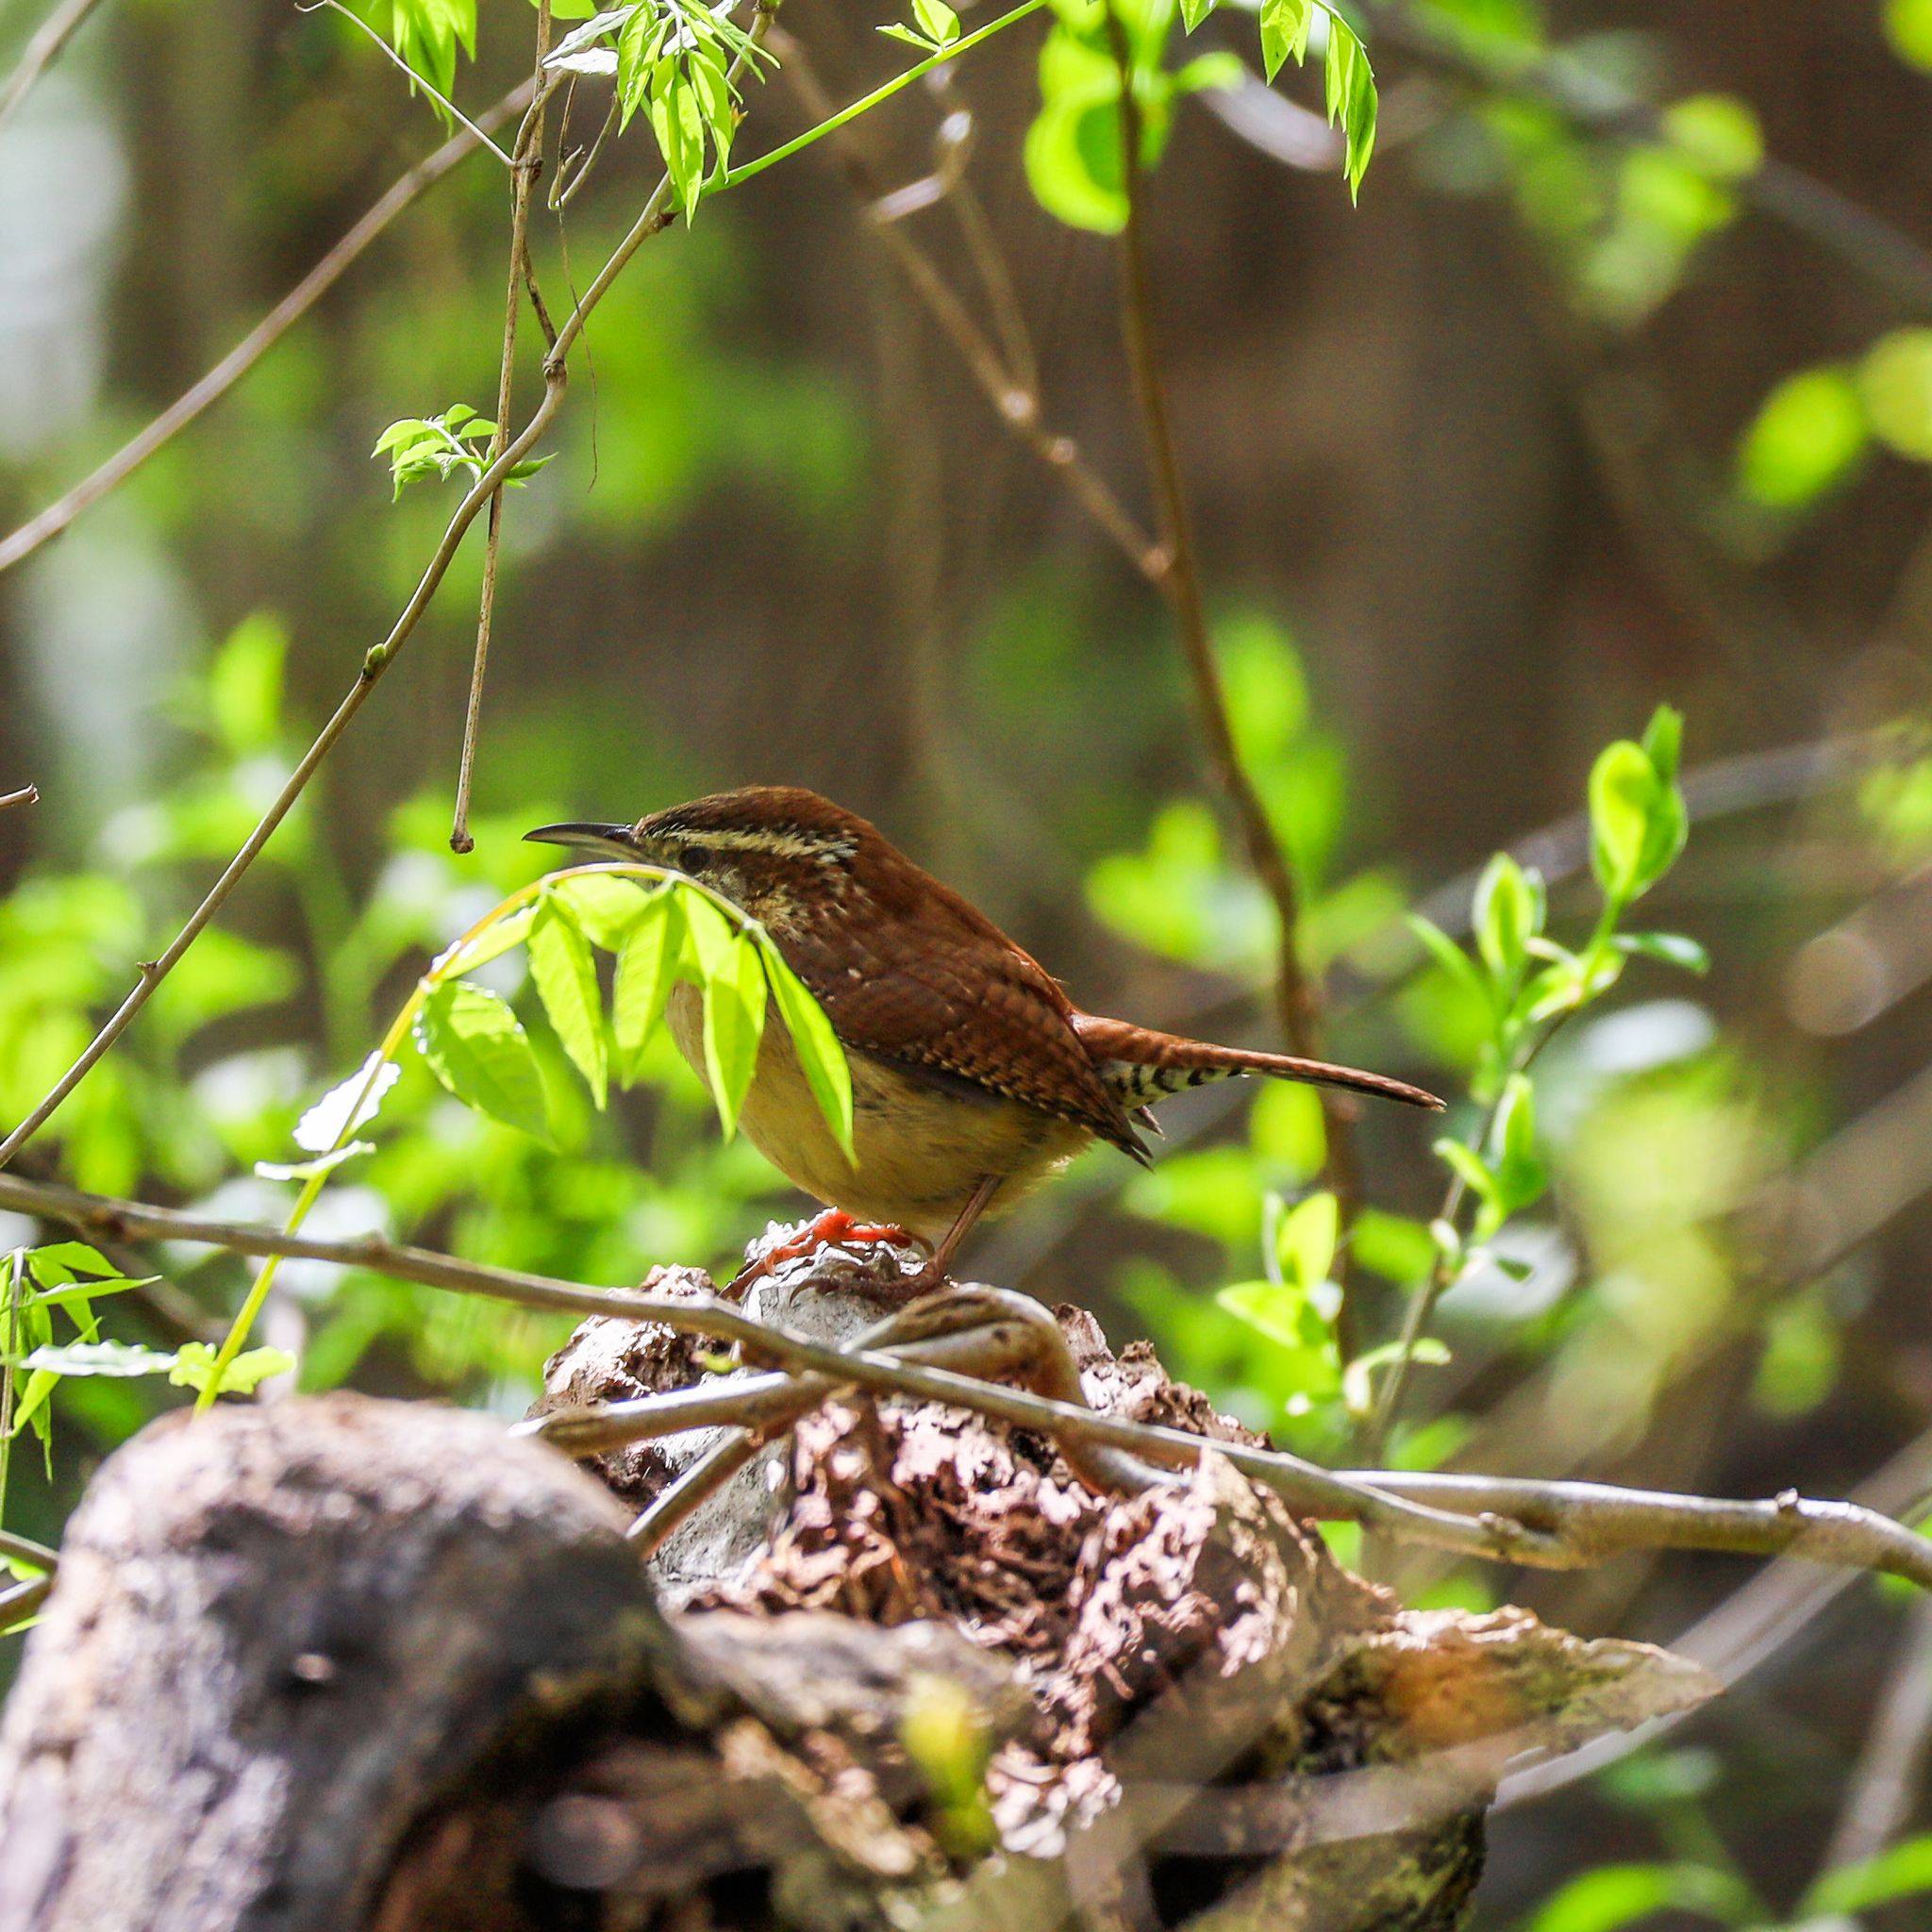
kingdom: Animalia
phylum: Chordata
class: Aves
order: Passeriformes
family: Troglodytidae
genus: Thryothorus
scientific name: Thryothorus ludovicianus
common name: Carolina wren
